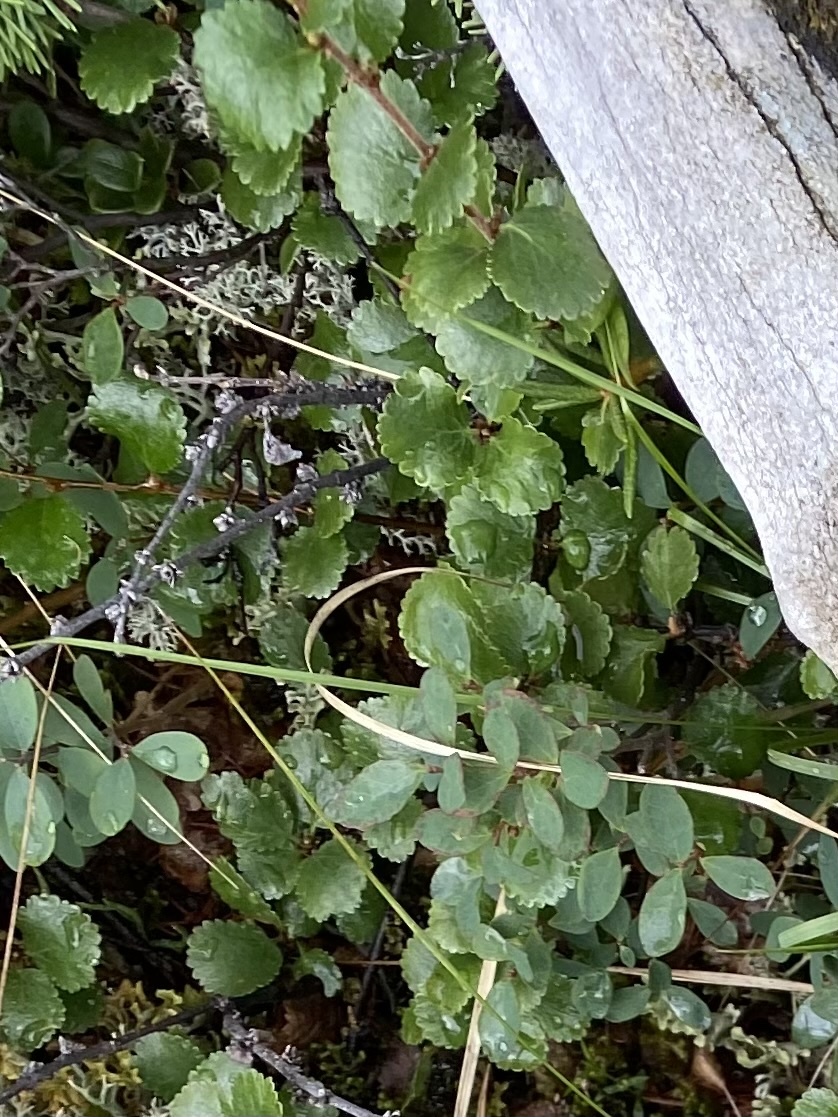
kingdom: Plantae
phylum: Tracheophyta
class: Magnoliopsida
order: Fagales
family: Betulaceae
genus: Betula
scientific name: Betula nana
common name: Arctic dwarf birch
